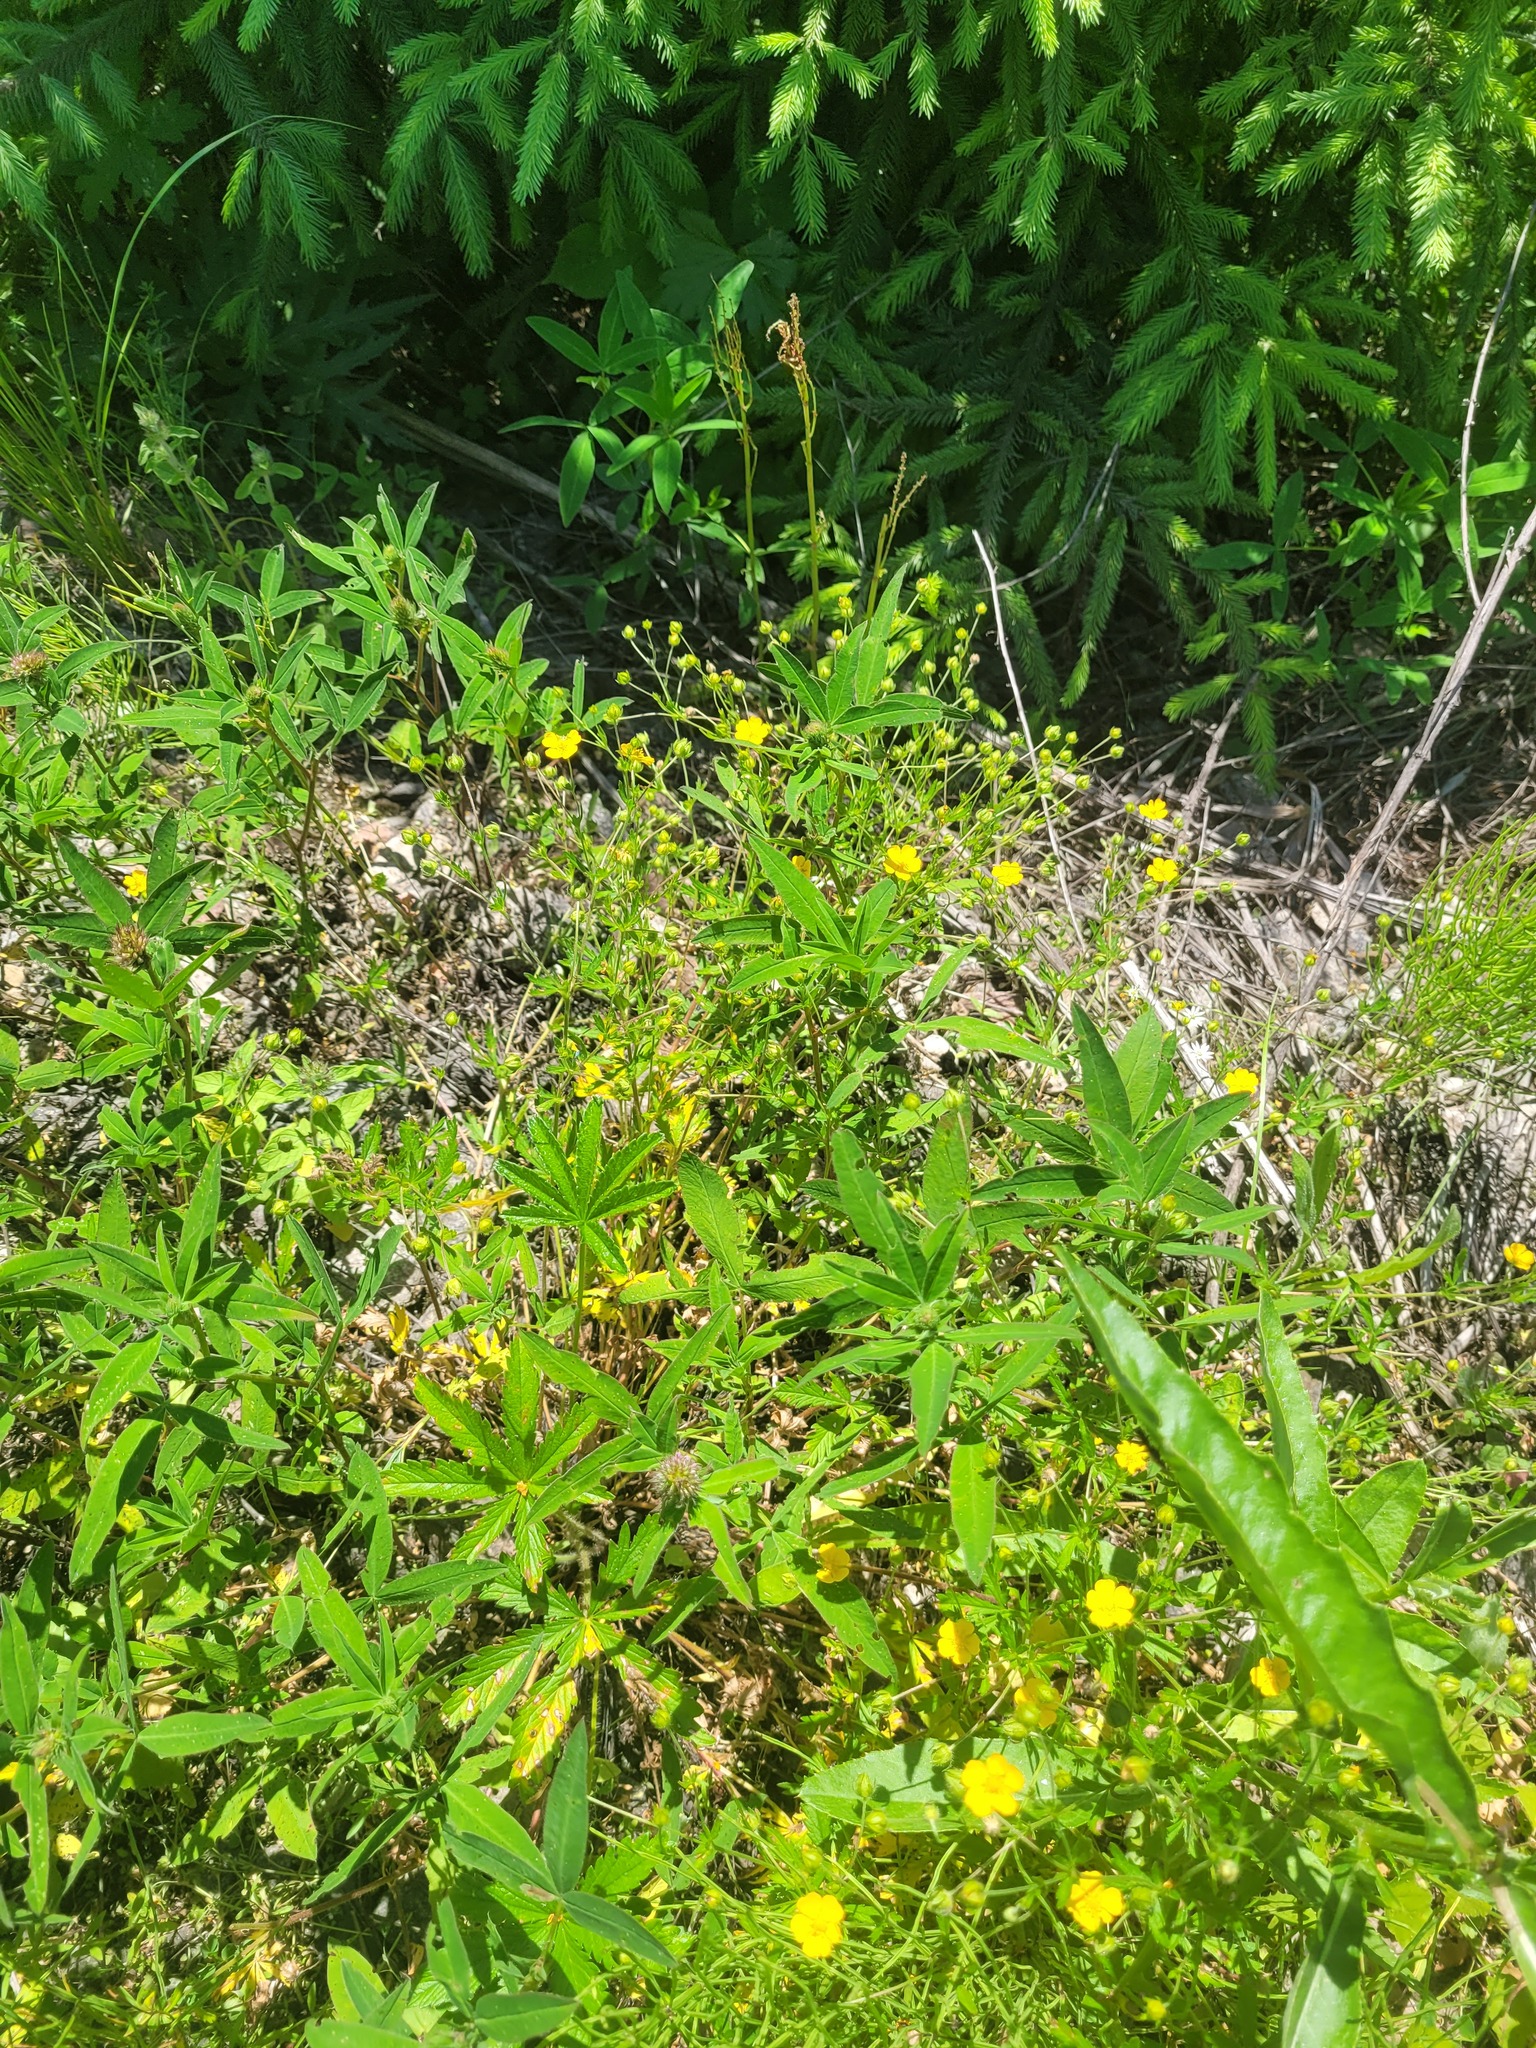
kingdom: Plantae
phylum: Tracheophyta
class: Magnoliopsida
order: Rosales
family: Rosaceae
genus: Potentilla
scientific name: Potentilla thuringiaca
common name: European cinquefoil
